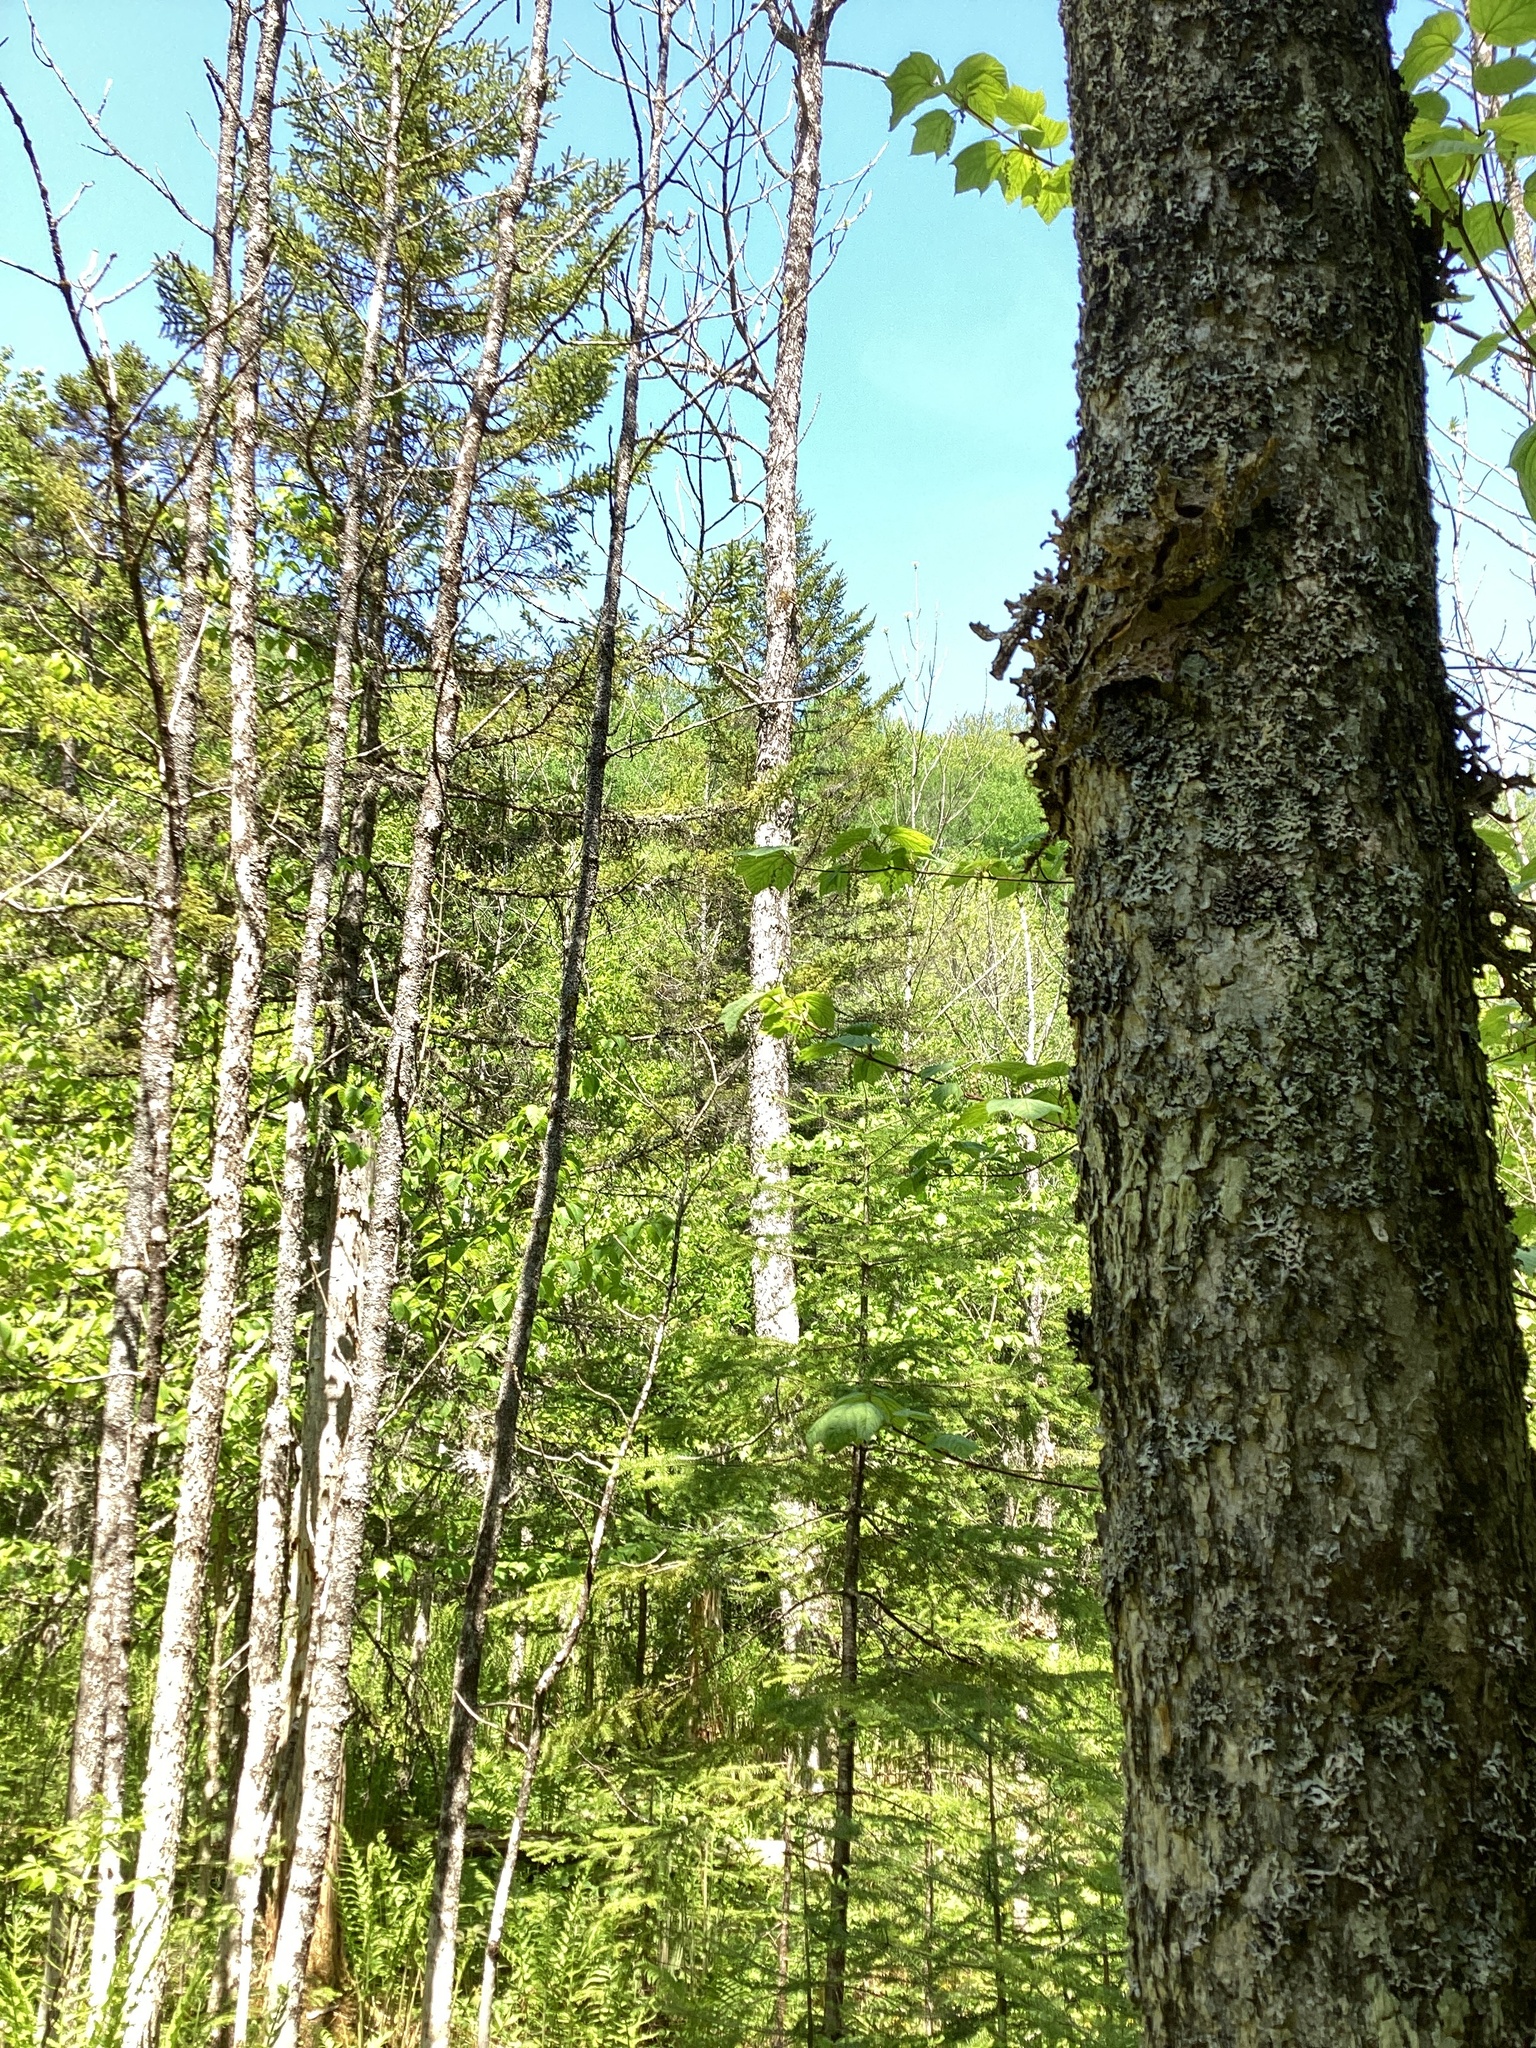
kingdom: Plantae
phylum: Tracheophyta
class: Magnoliopsida
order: Lamiales
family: Oleaceae
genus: Fraxinus
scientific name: Fraxinus nigra
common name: Black ash
